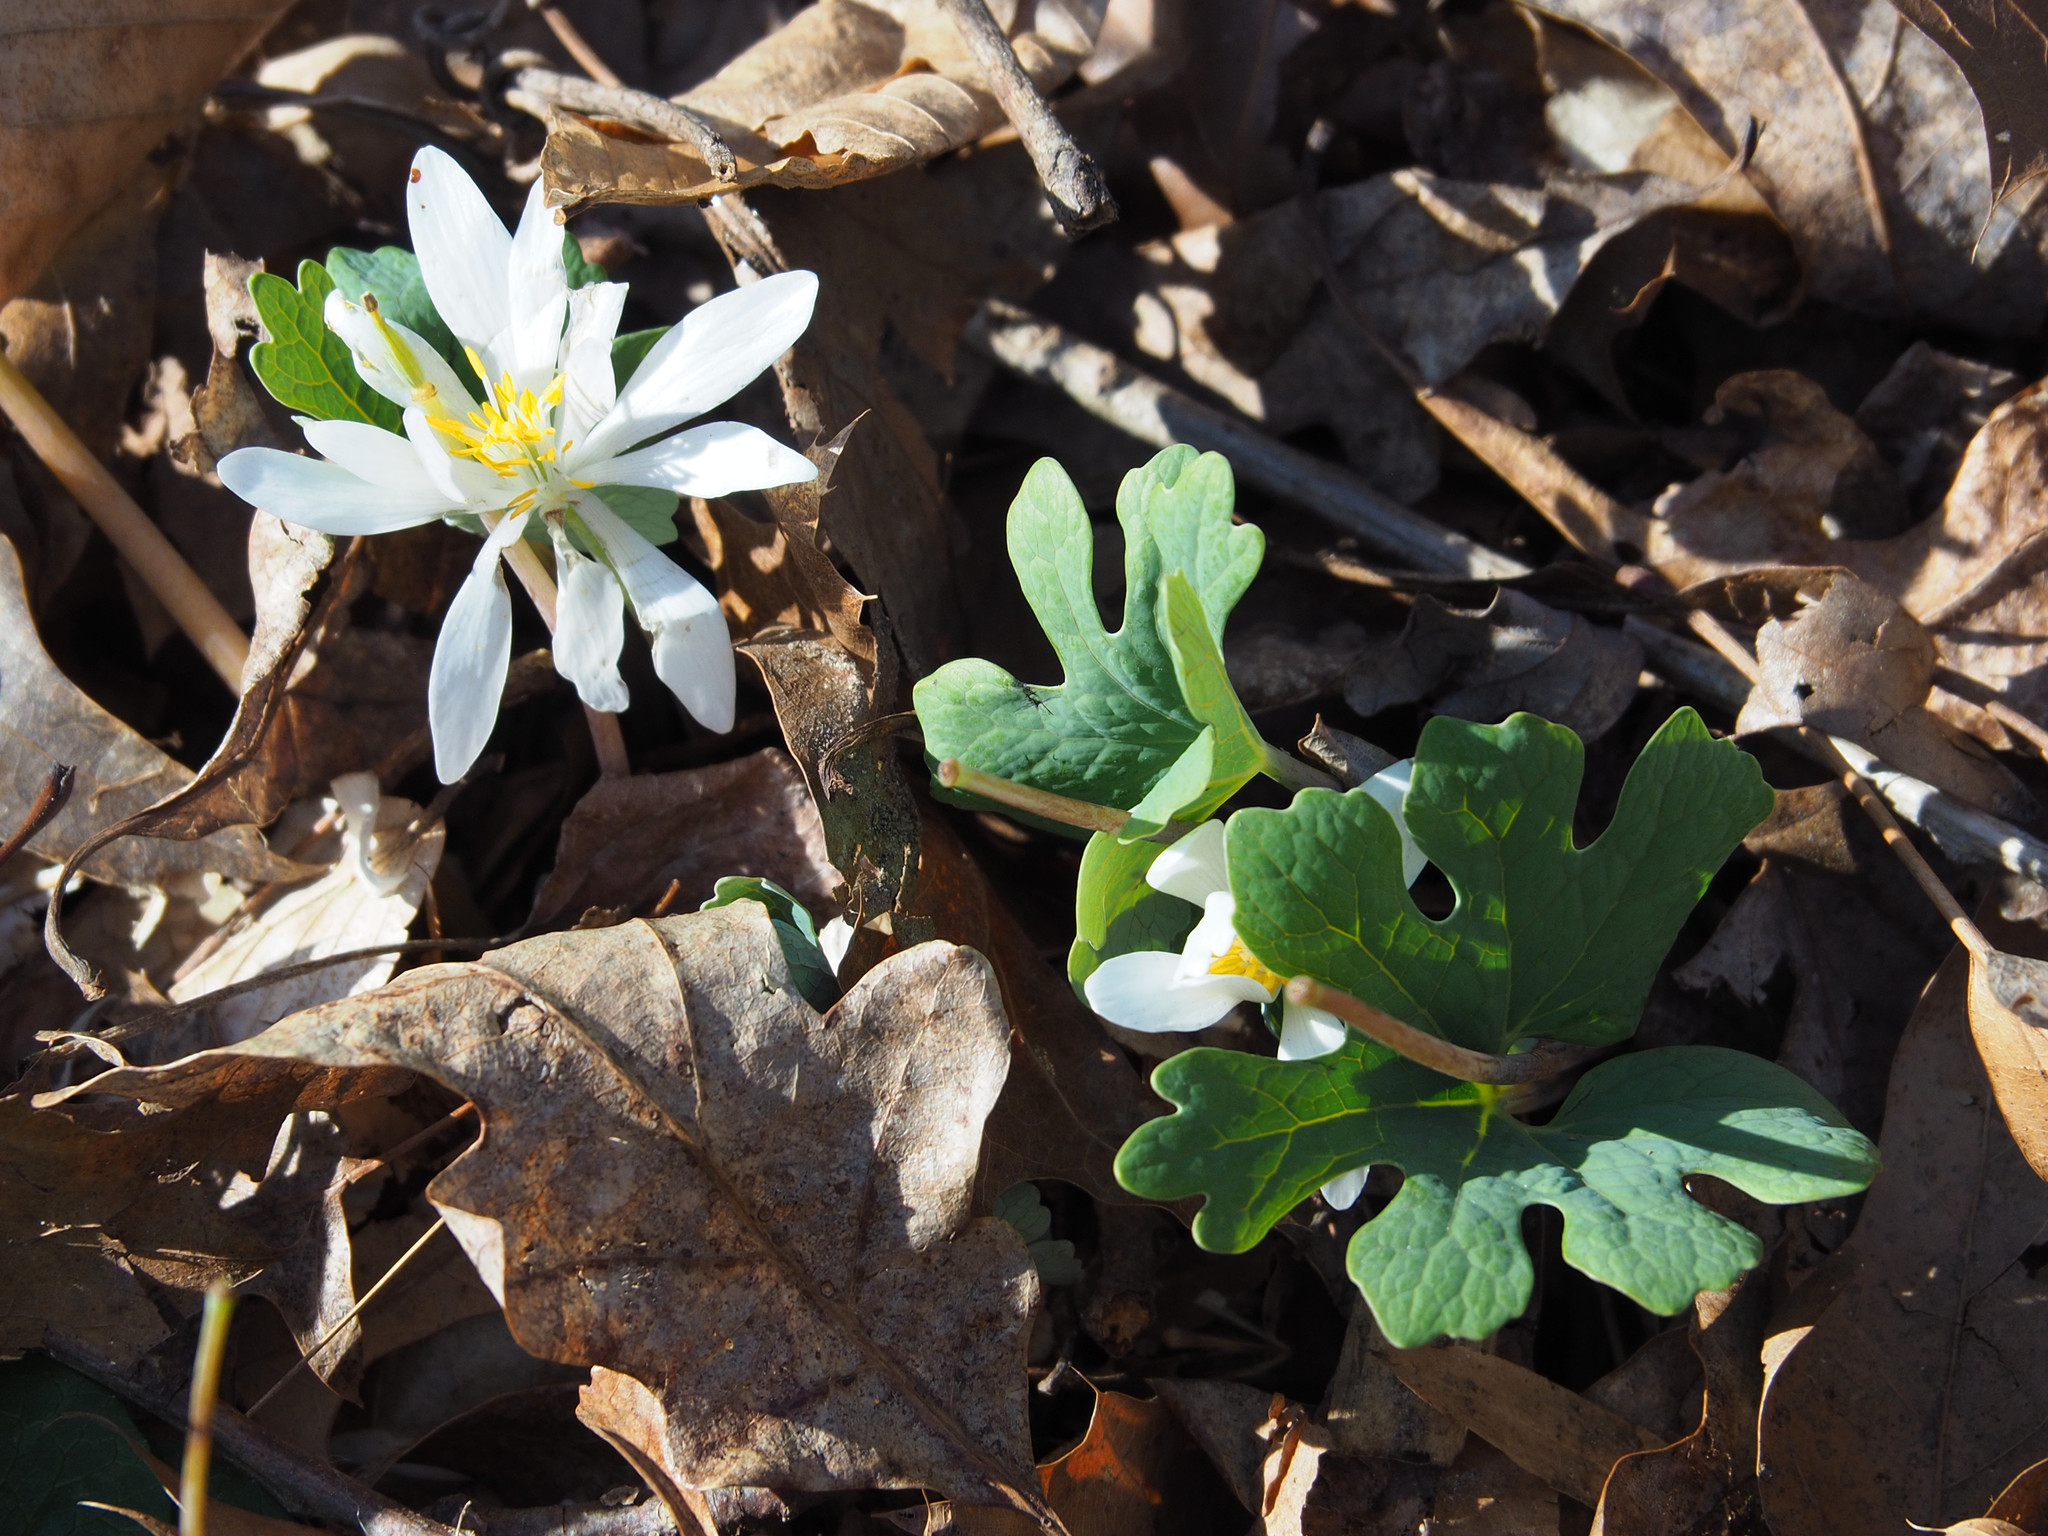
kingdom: Plantae
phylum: Tracheophyta
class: Magnoliopsida
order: Ranunculales
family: Papaveraceae
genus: Sanguinaria
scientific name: Sanguinaria canadensis
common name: Bloodroot
